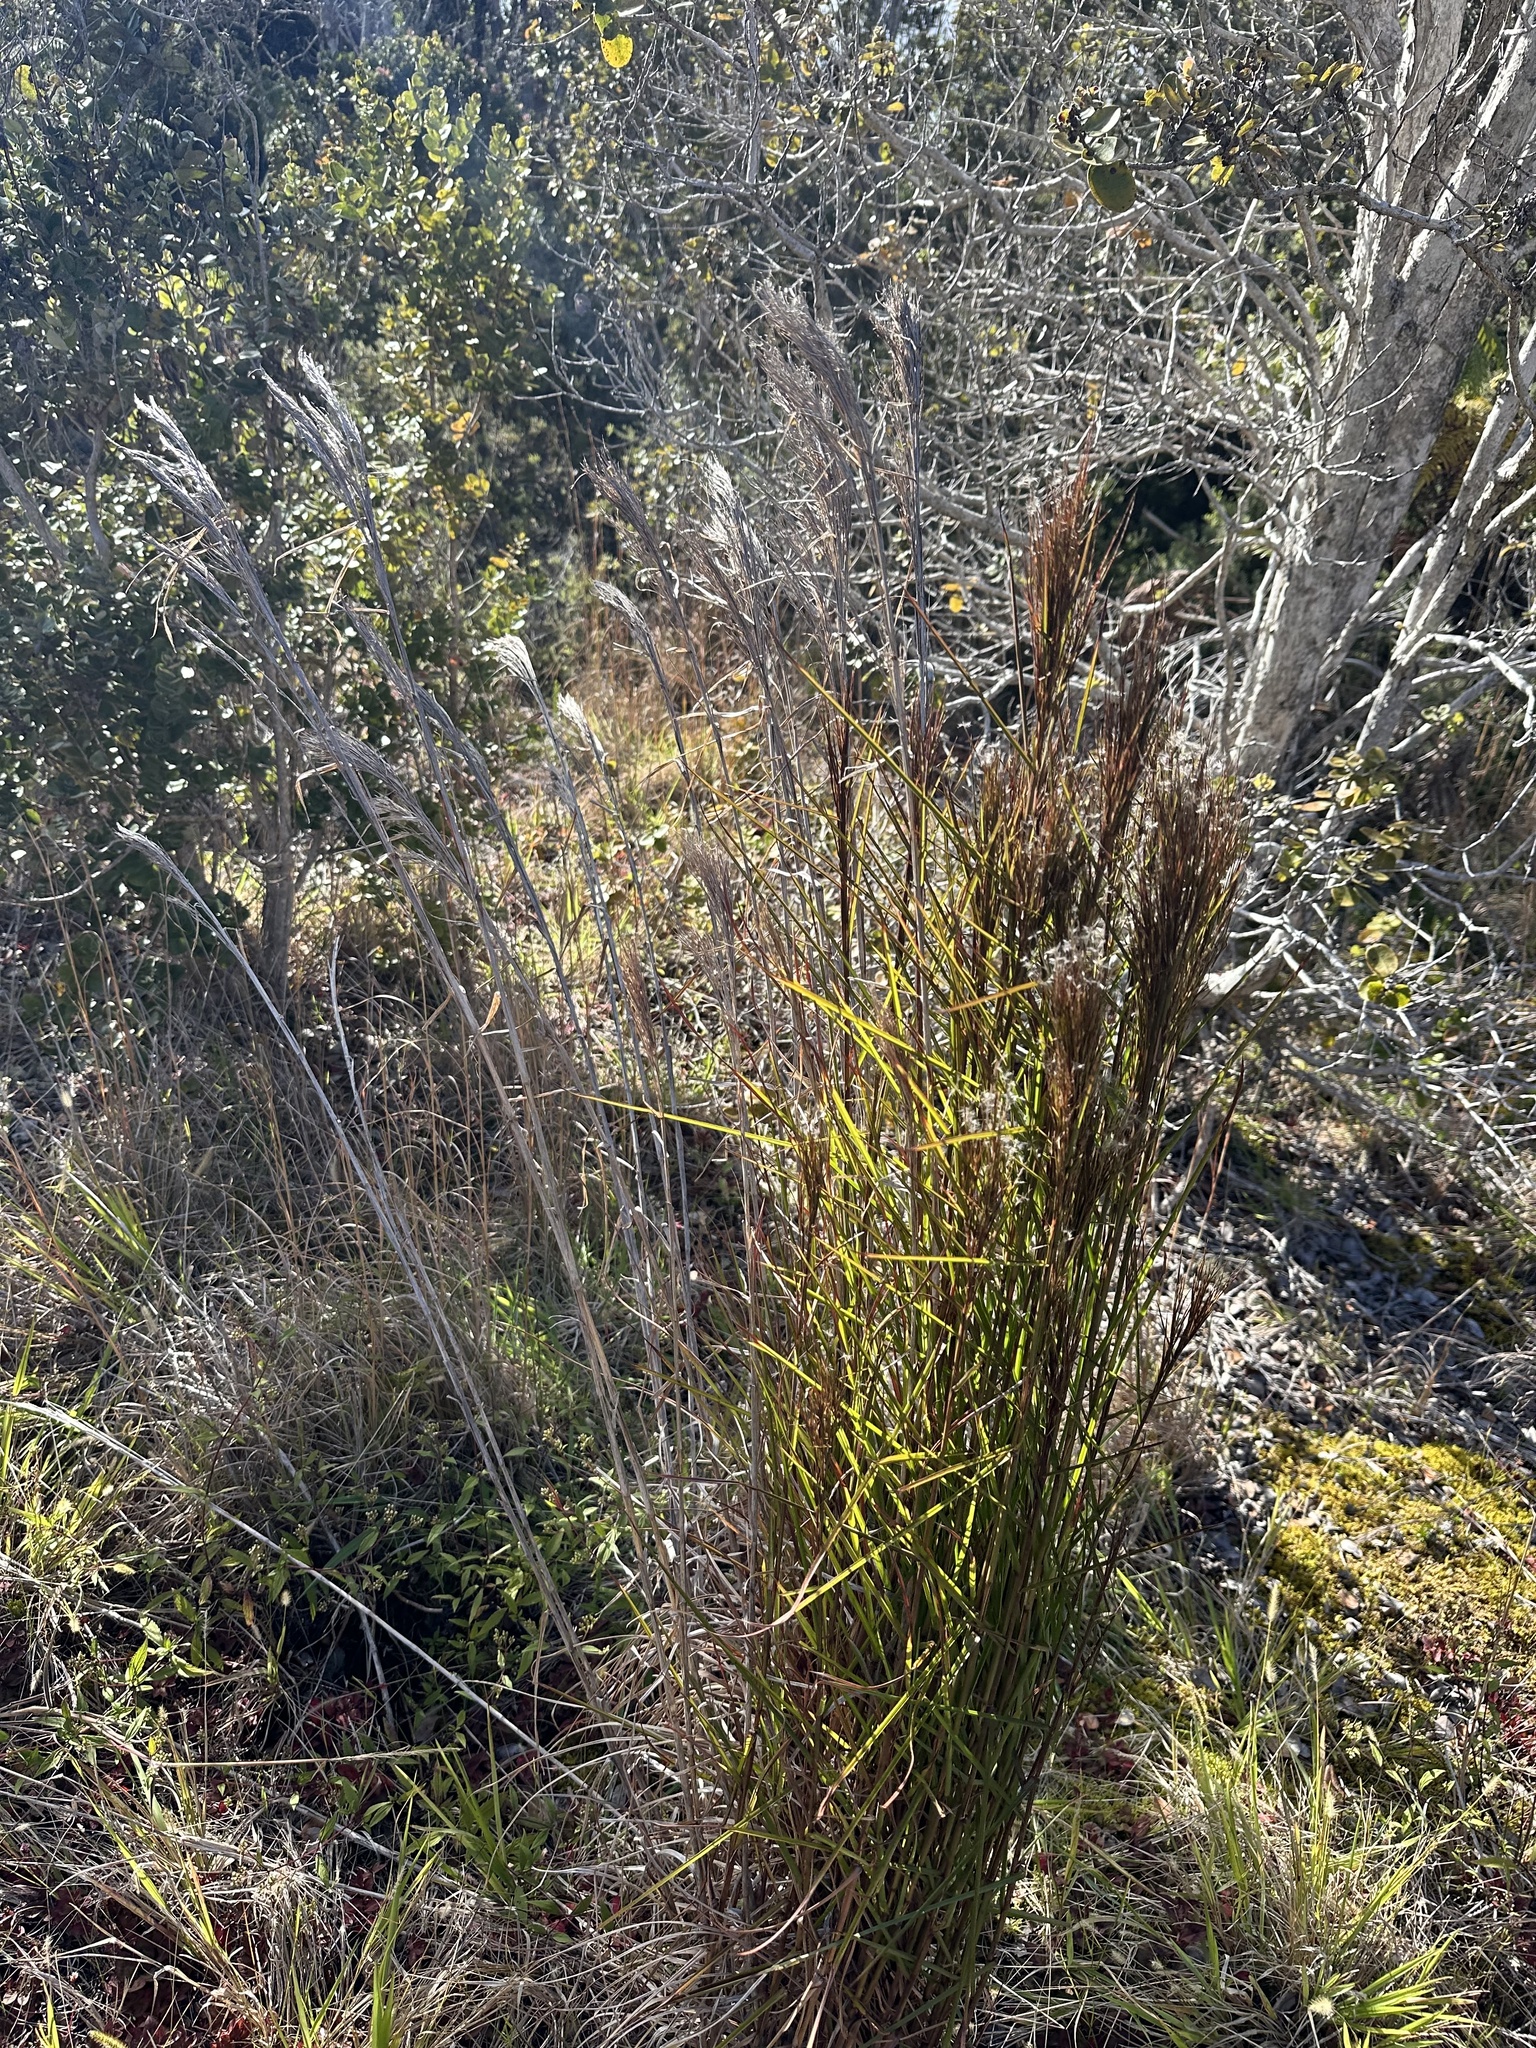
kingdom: Plantae
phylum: Tracheophyta
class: Liliopsida
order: Poales
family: Poaceae
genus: Schizachyrium
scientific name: Schizachyrium microstachyum
